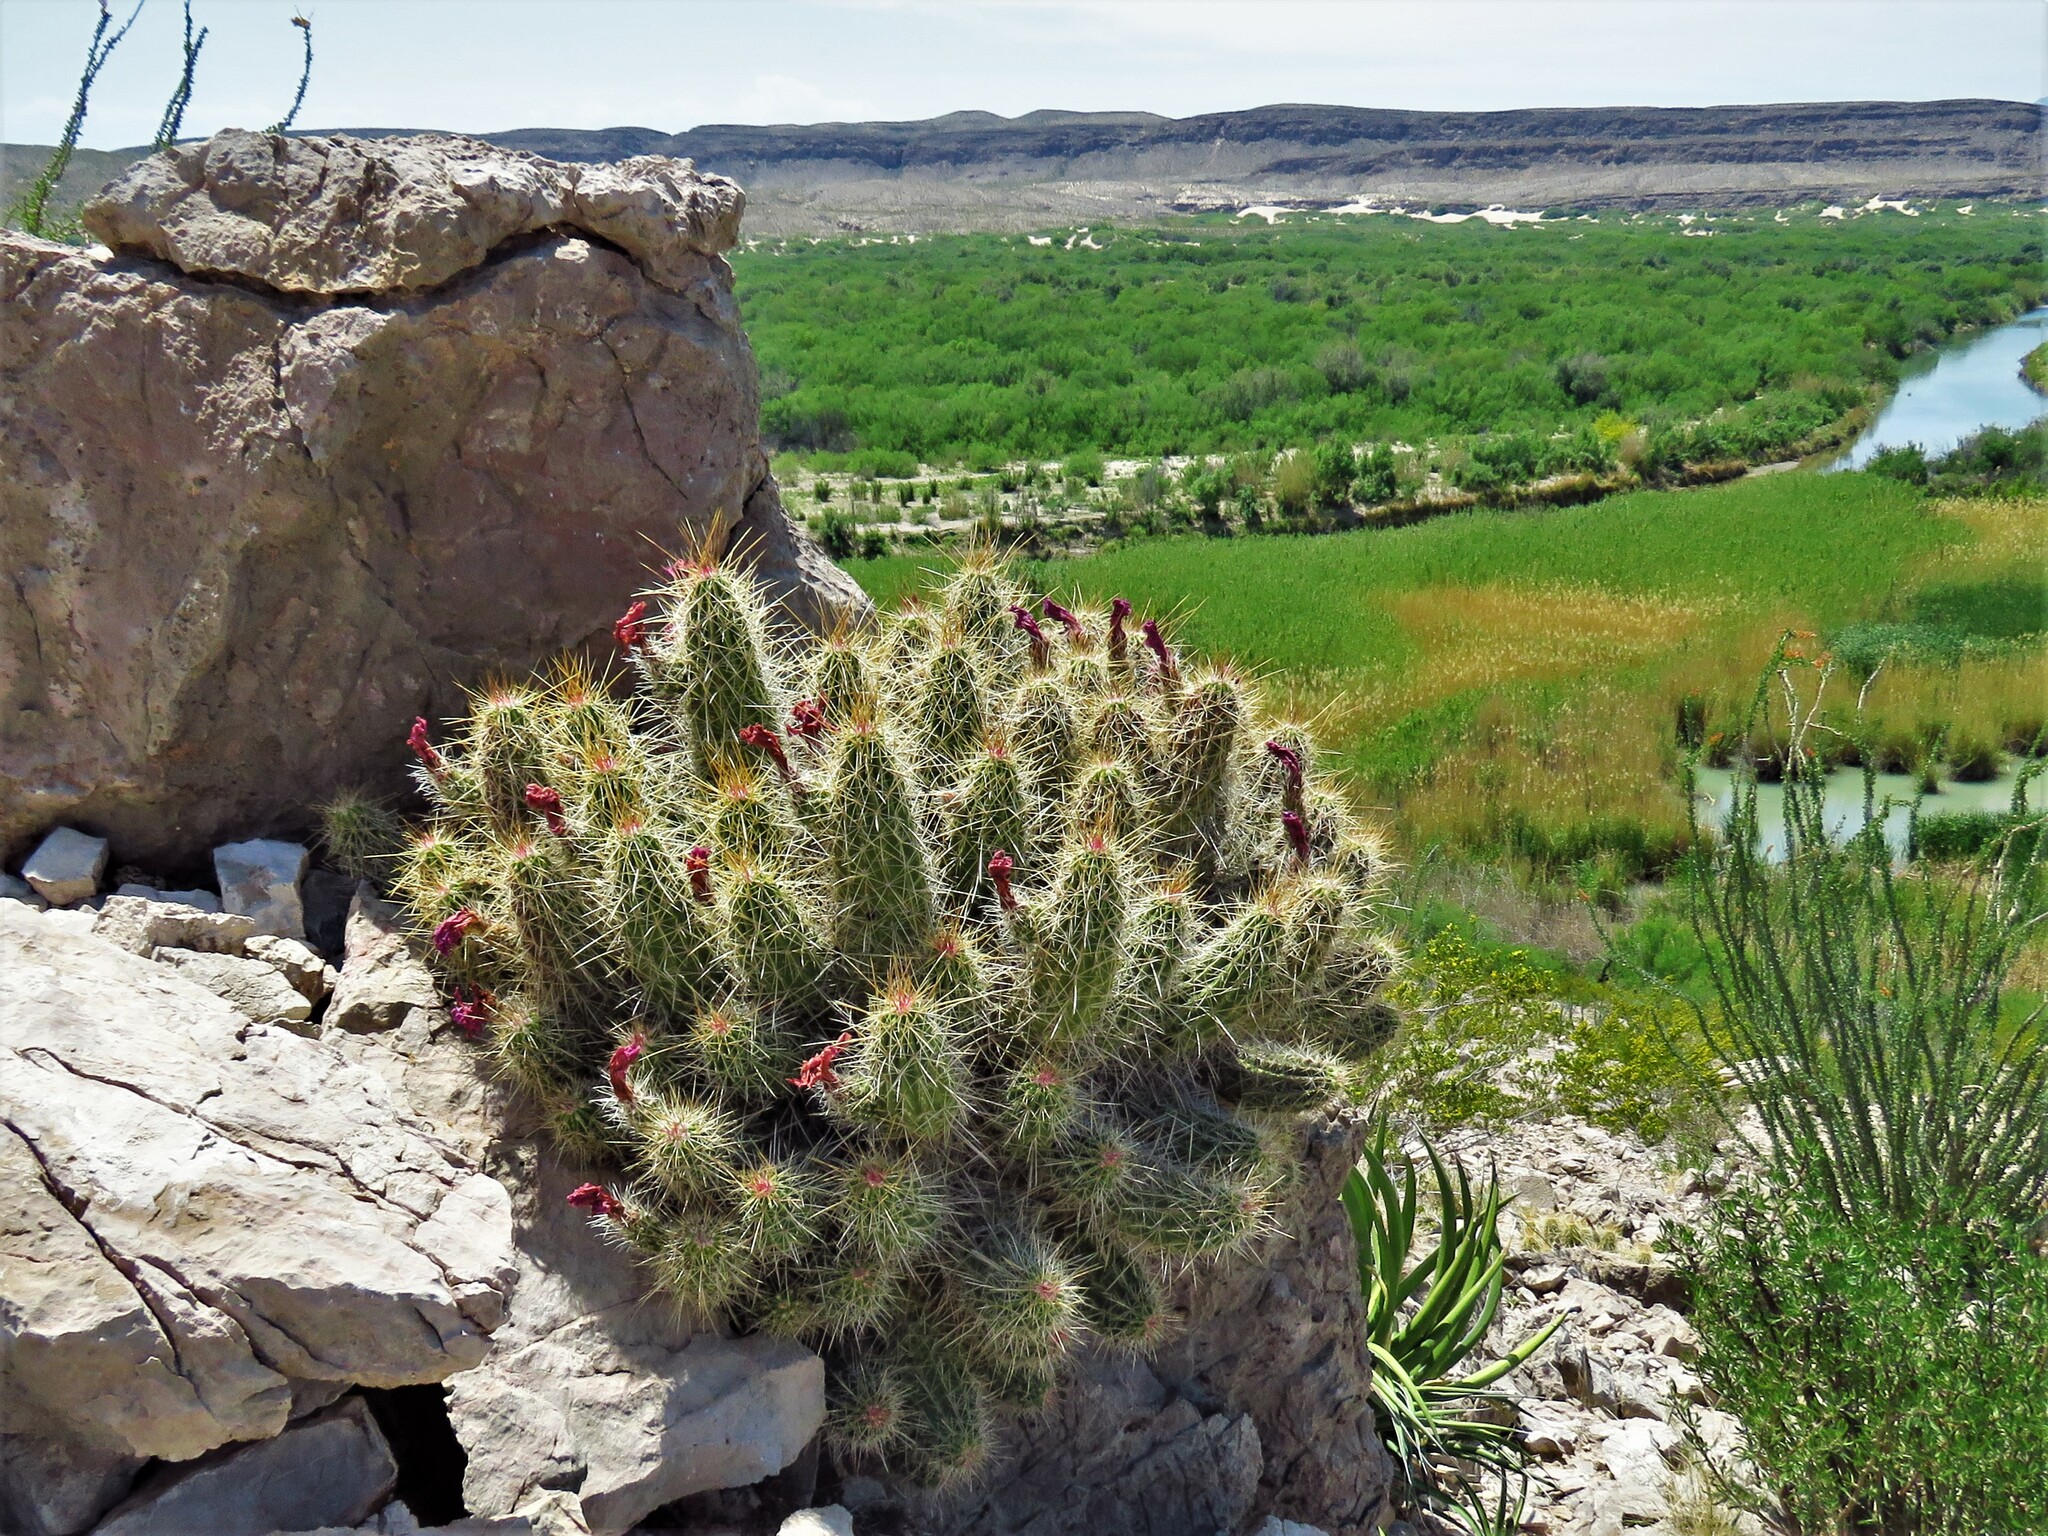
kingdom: Plantae
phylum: Tracheophyta
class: Magnoliopsida
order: Caryophyllales
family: Cactaceae
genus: Echinocereus
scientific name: Echinocereus stramineus
